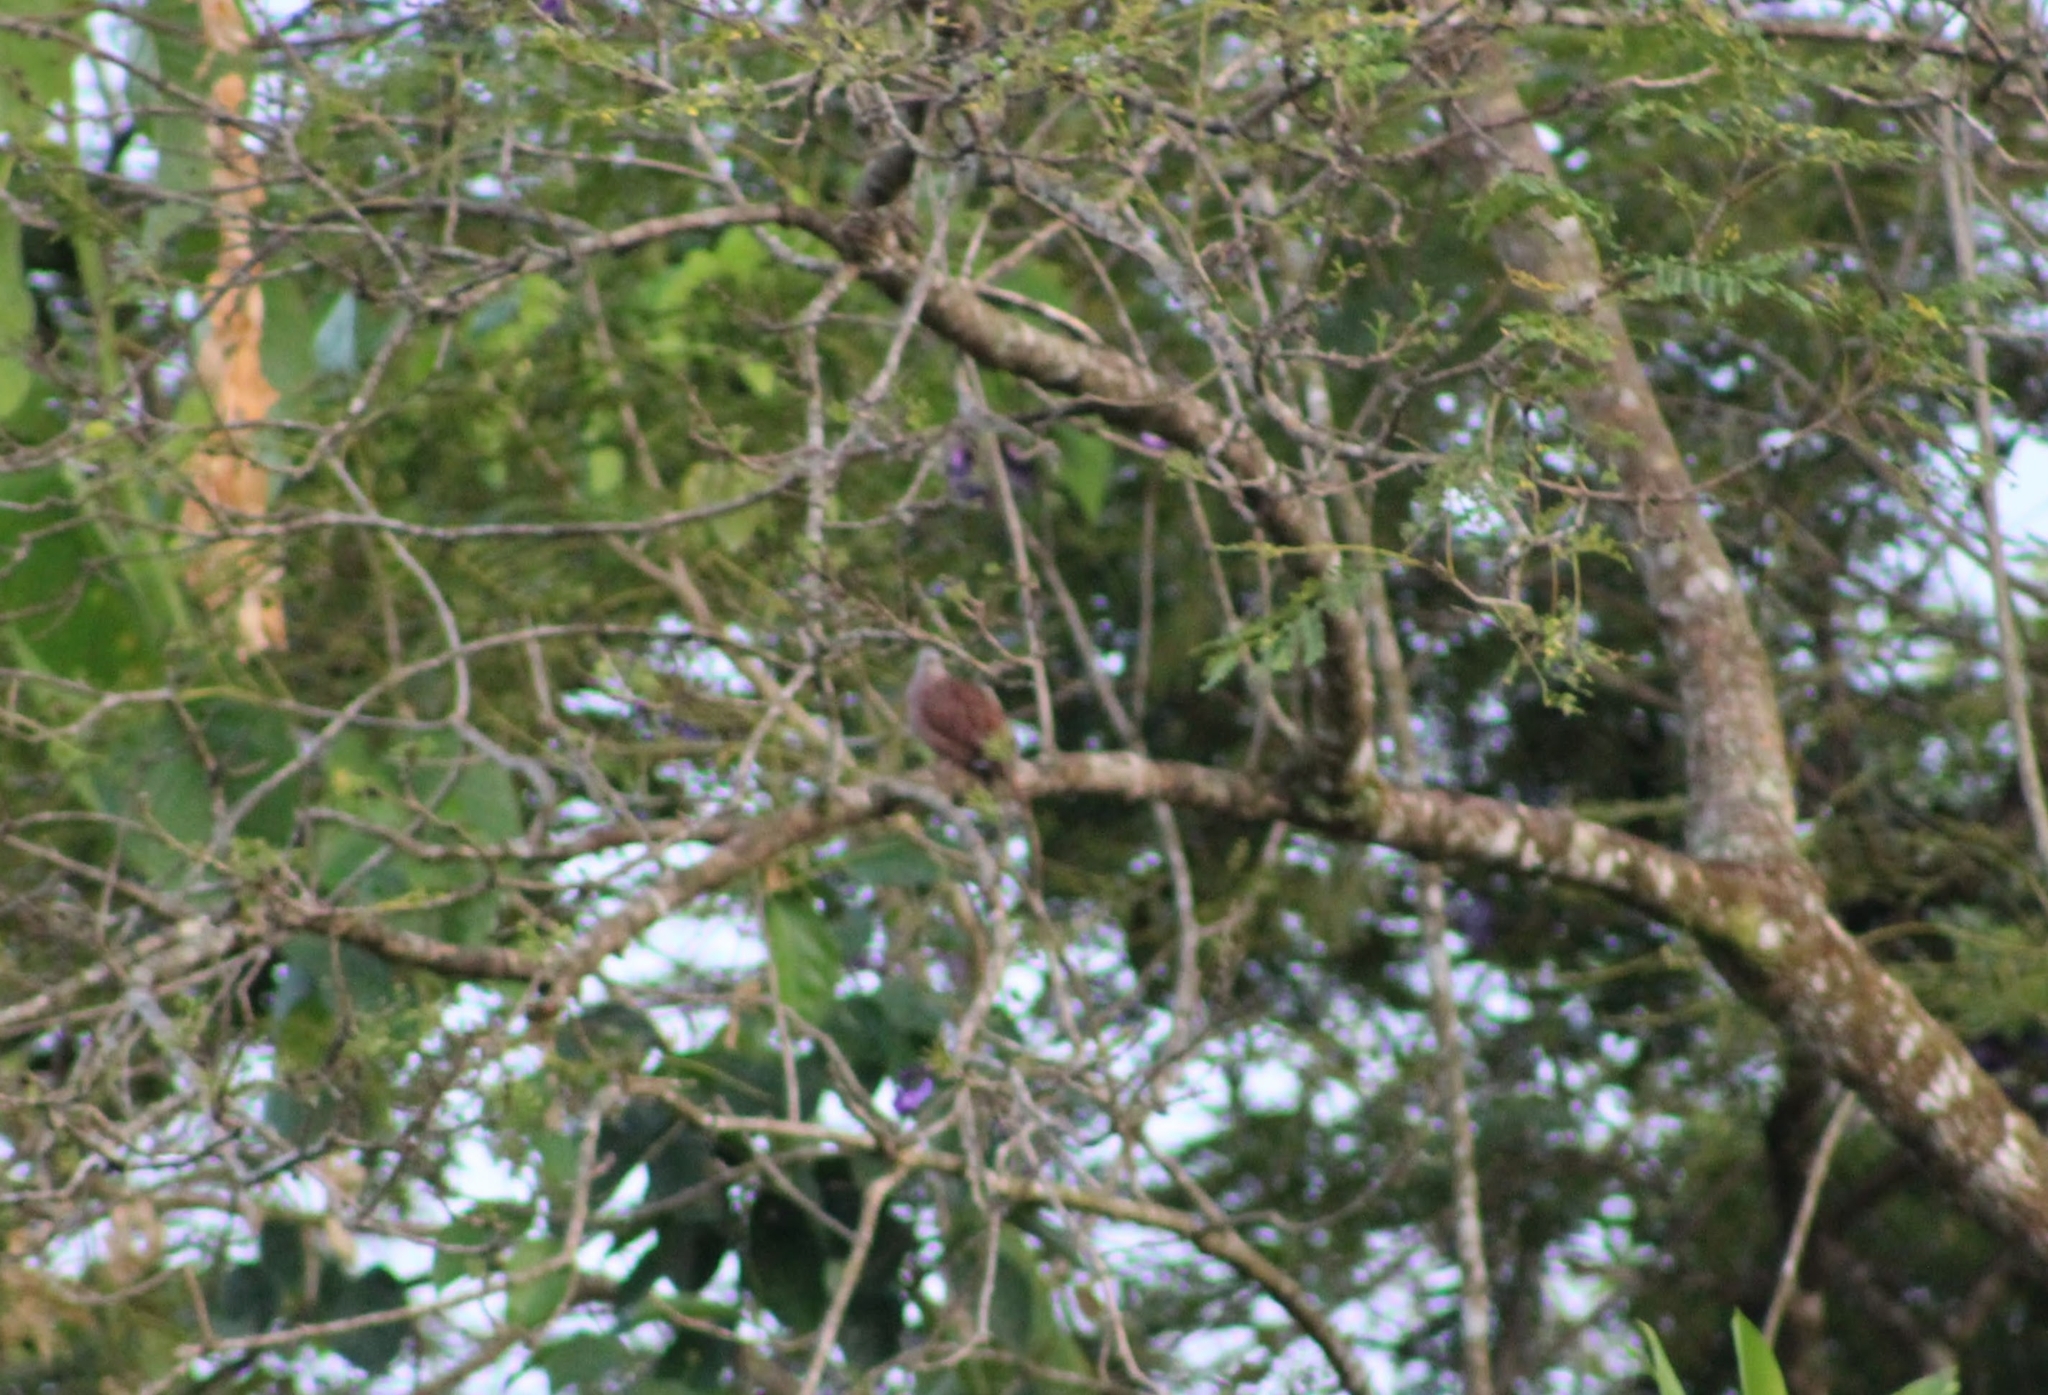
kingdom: Animalia
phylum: Chordata
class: Aves
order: Columbiformes
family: Columbidae
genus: Columbina
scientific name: Columbina talpacoti
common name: Ruddy ground dove
